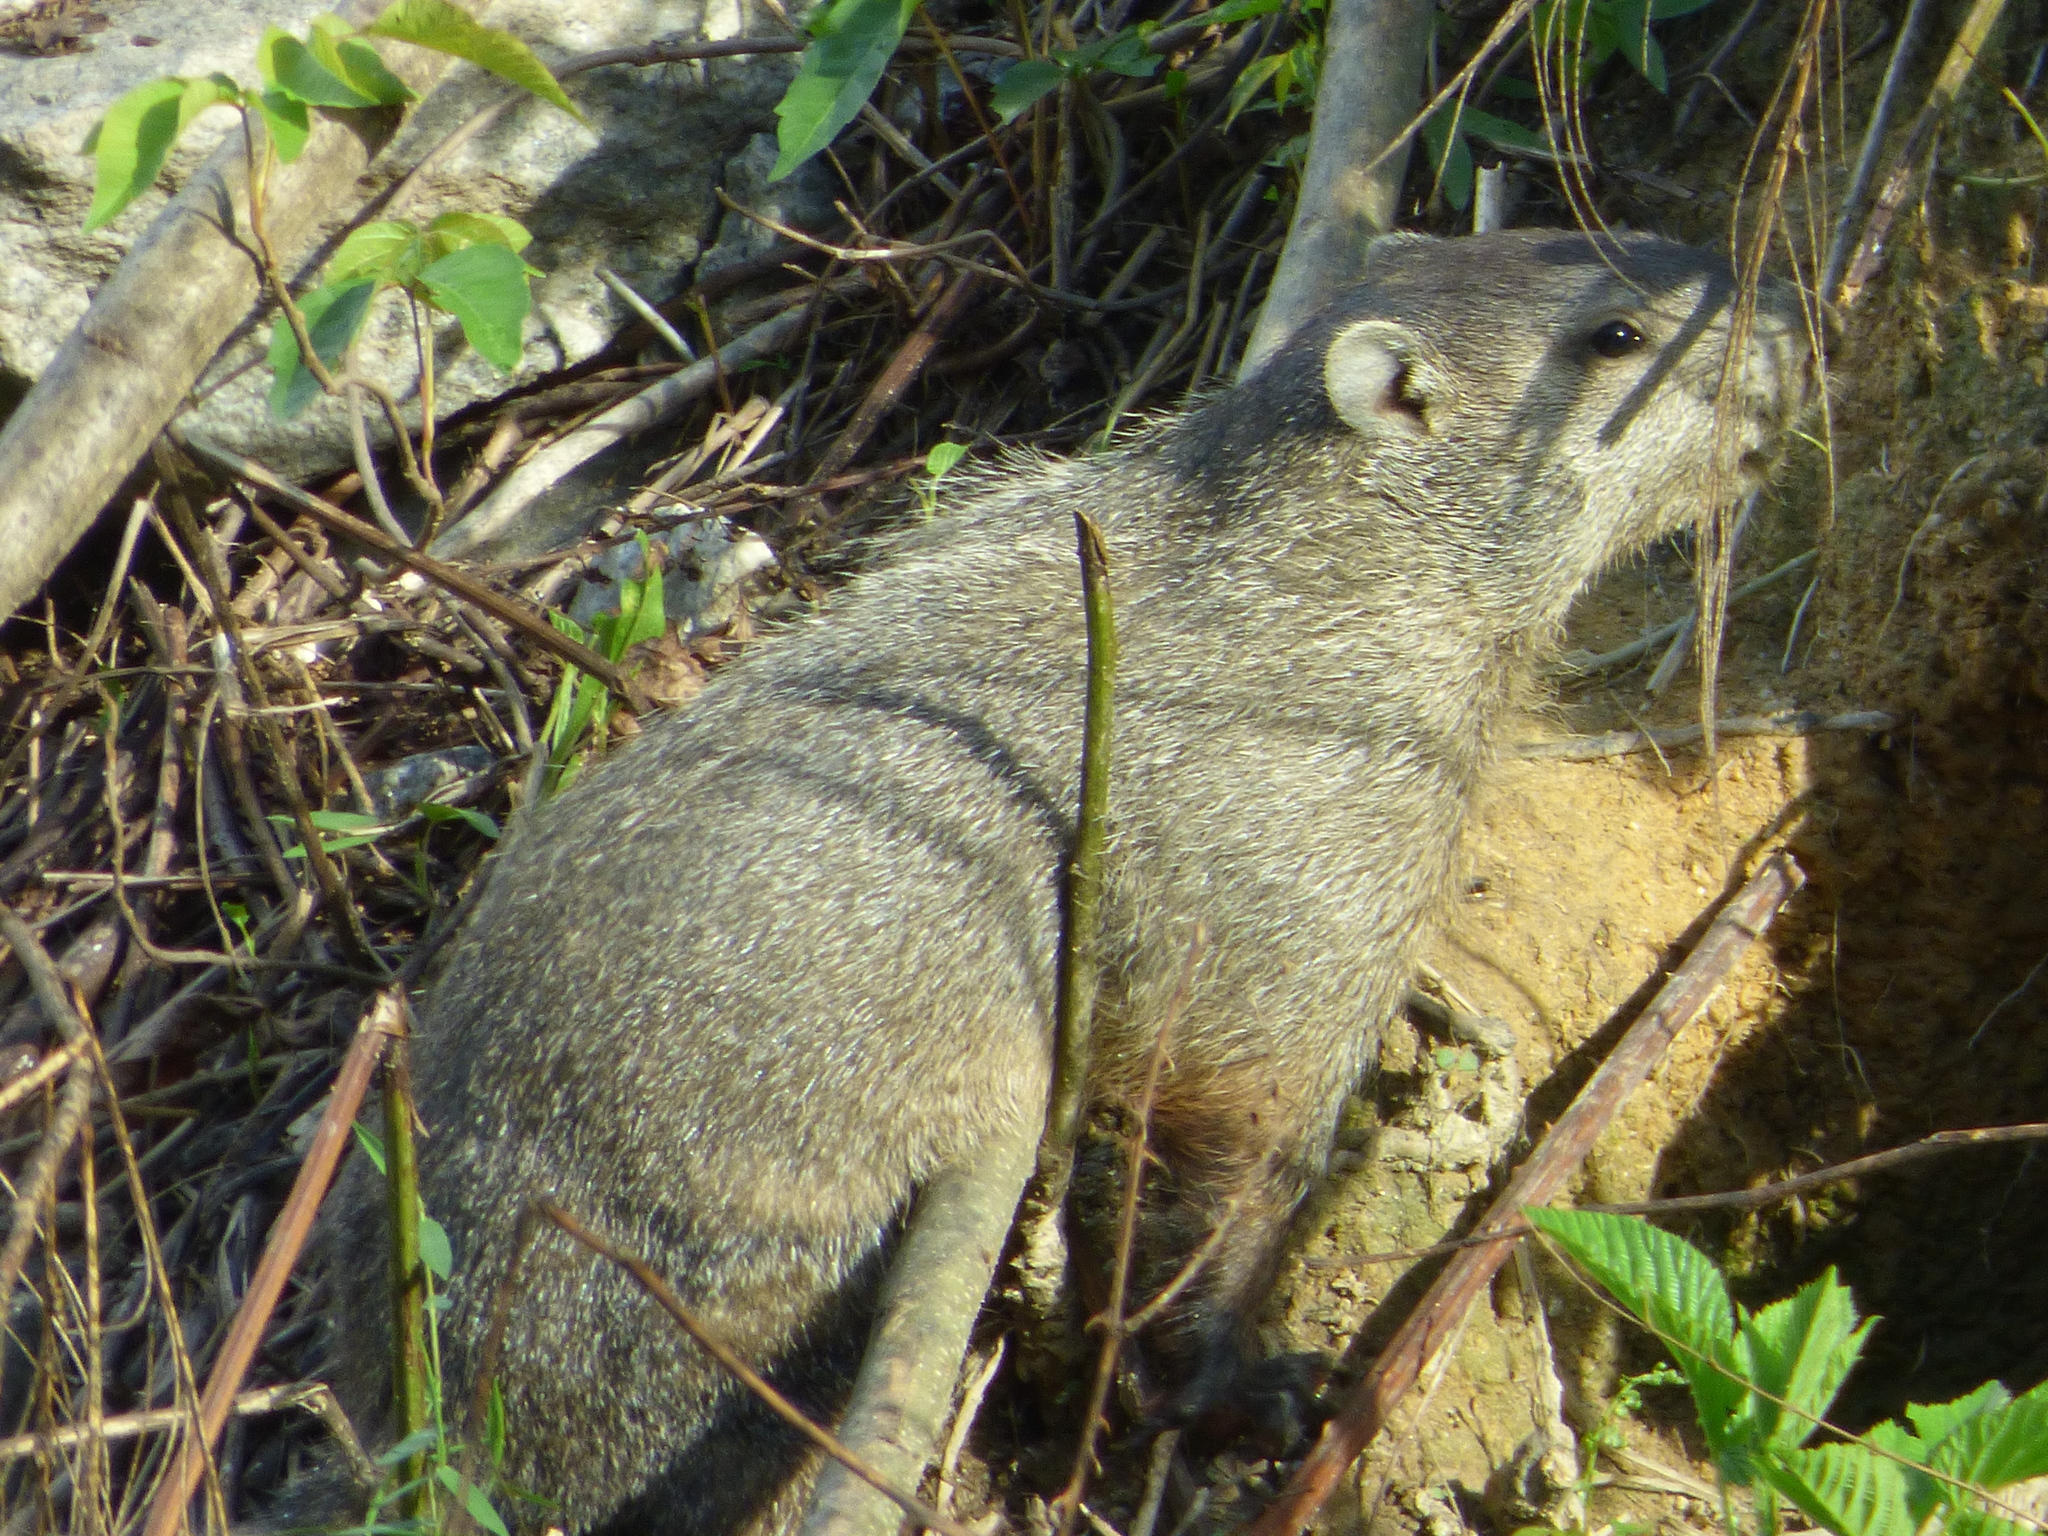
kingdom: Animalia
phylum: Chordata
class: Mammalia
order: Rodentia
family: Sciuridae
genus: Marmota
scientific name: Marmota monax
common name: Groundhog
